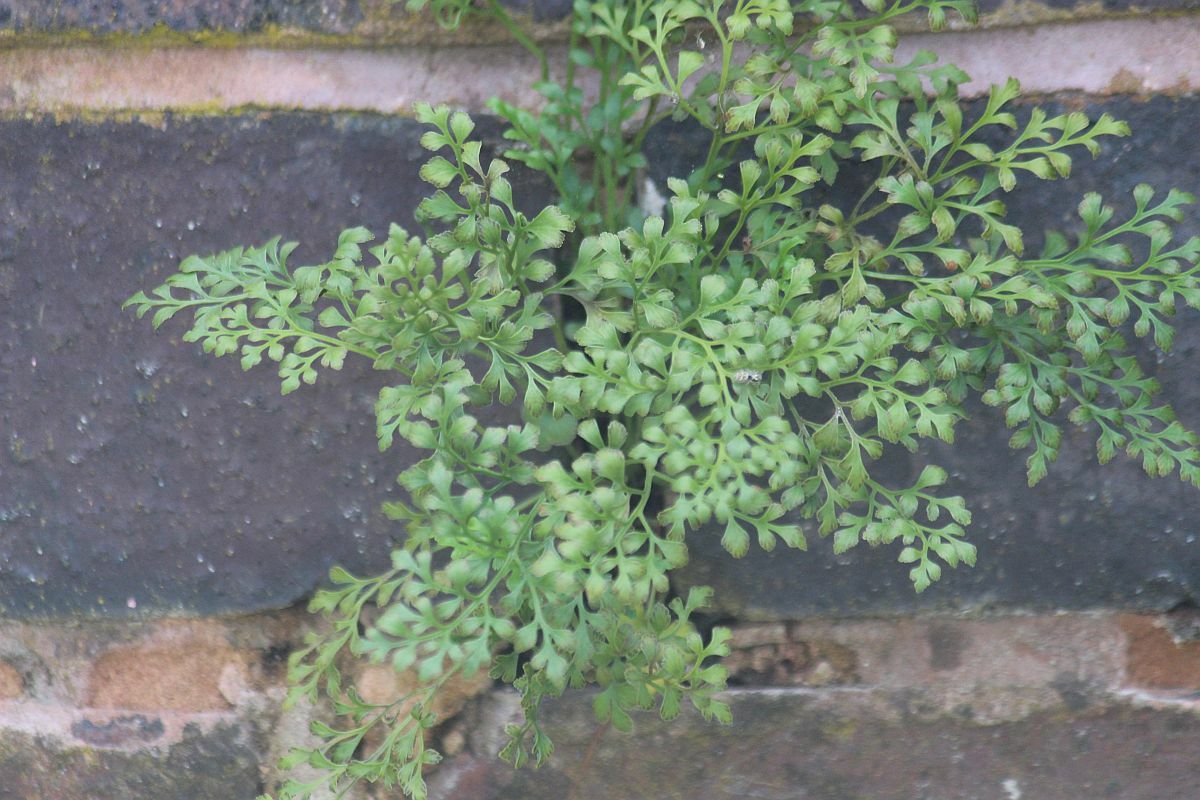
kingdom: Plantae
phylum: Tracheophyta
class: Polypodiopsida
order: Polypodiales
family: Aspleniaceae
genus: Asplenium
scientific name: Asplenium ruta-muraria
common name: Wall-rue
